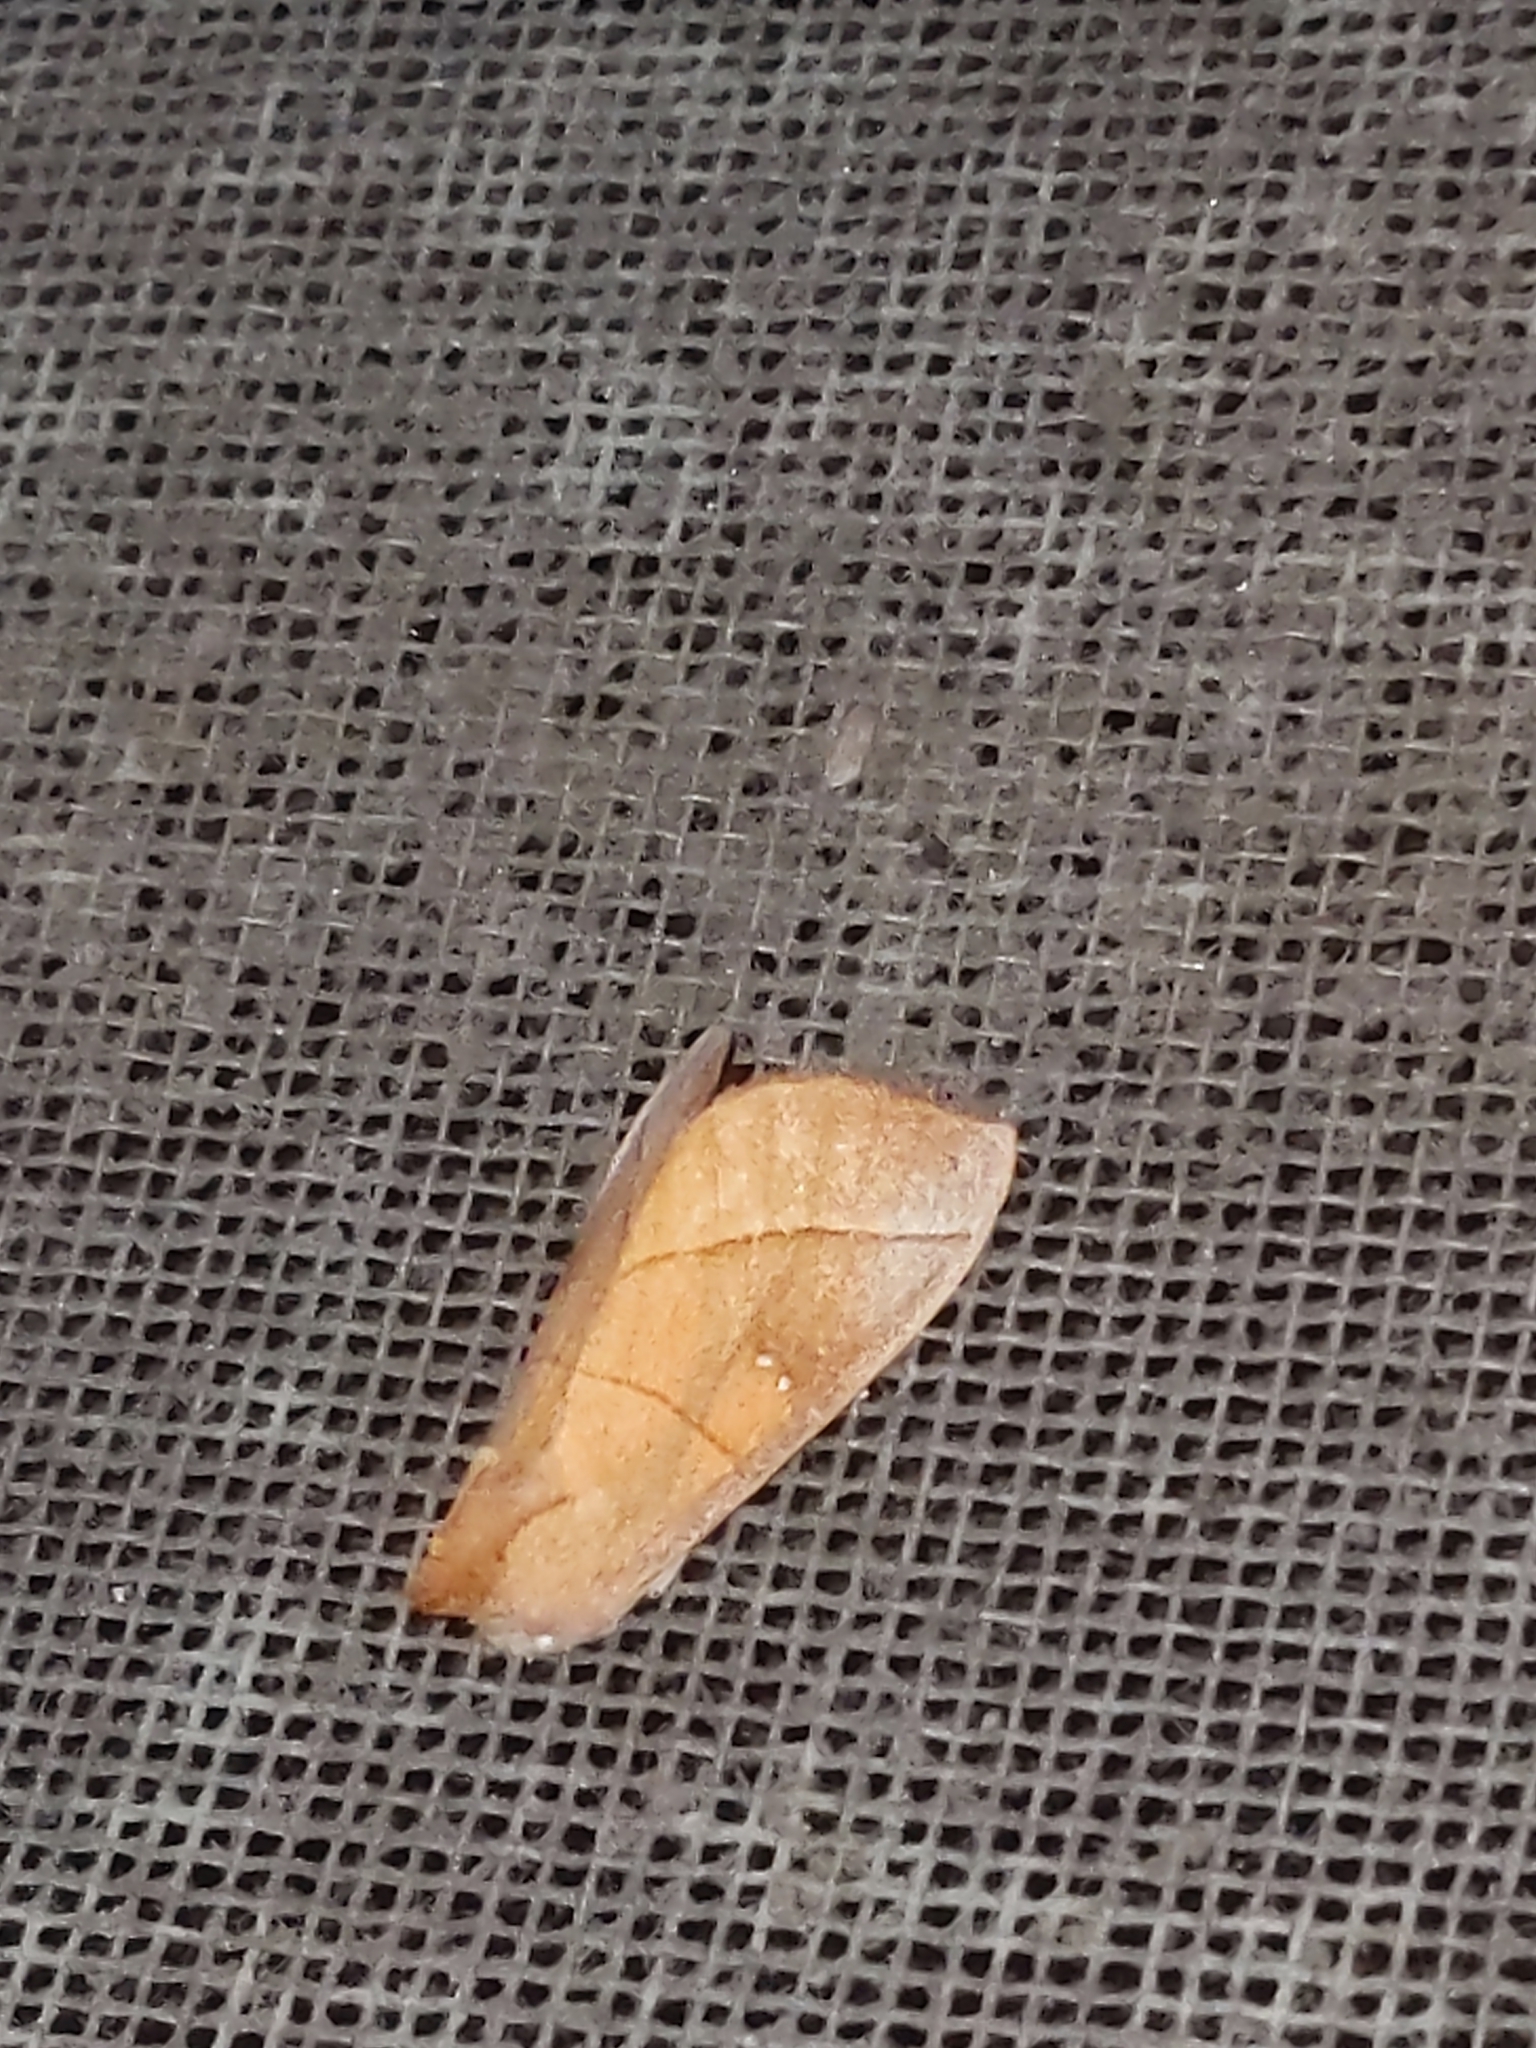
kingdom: Animalia
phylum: Arthropoda
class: Insecta
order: Lepidoptera
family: Notodontidae
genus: Nadata
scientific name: Nadata gibbosa
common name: White-dotted prominent
